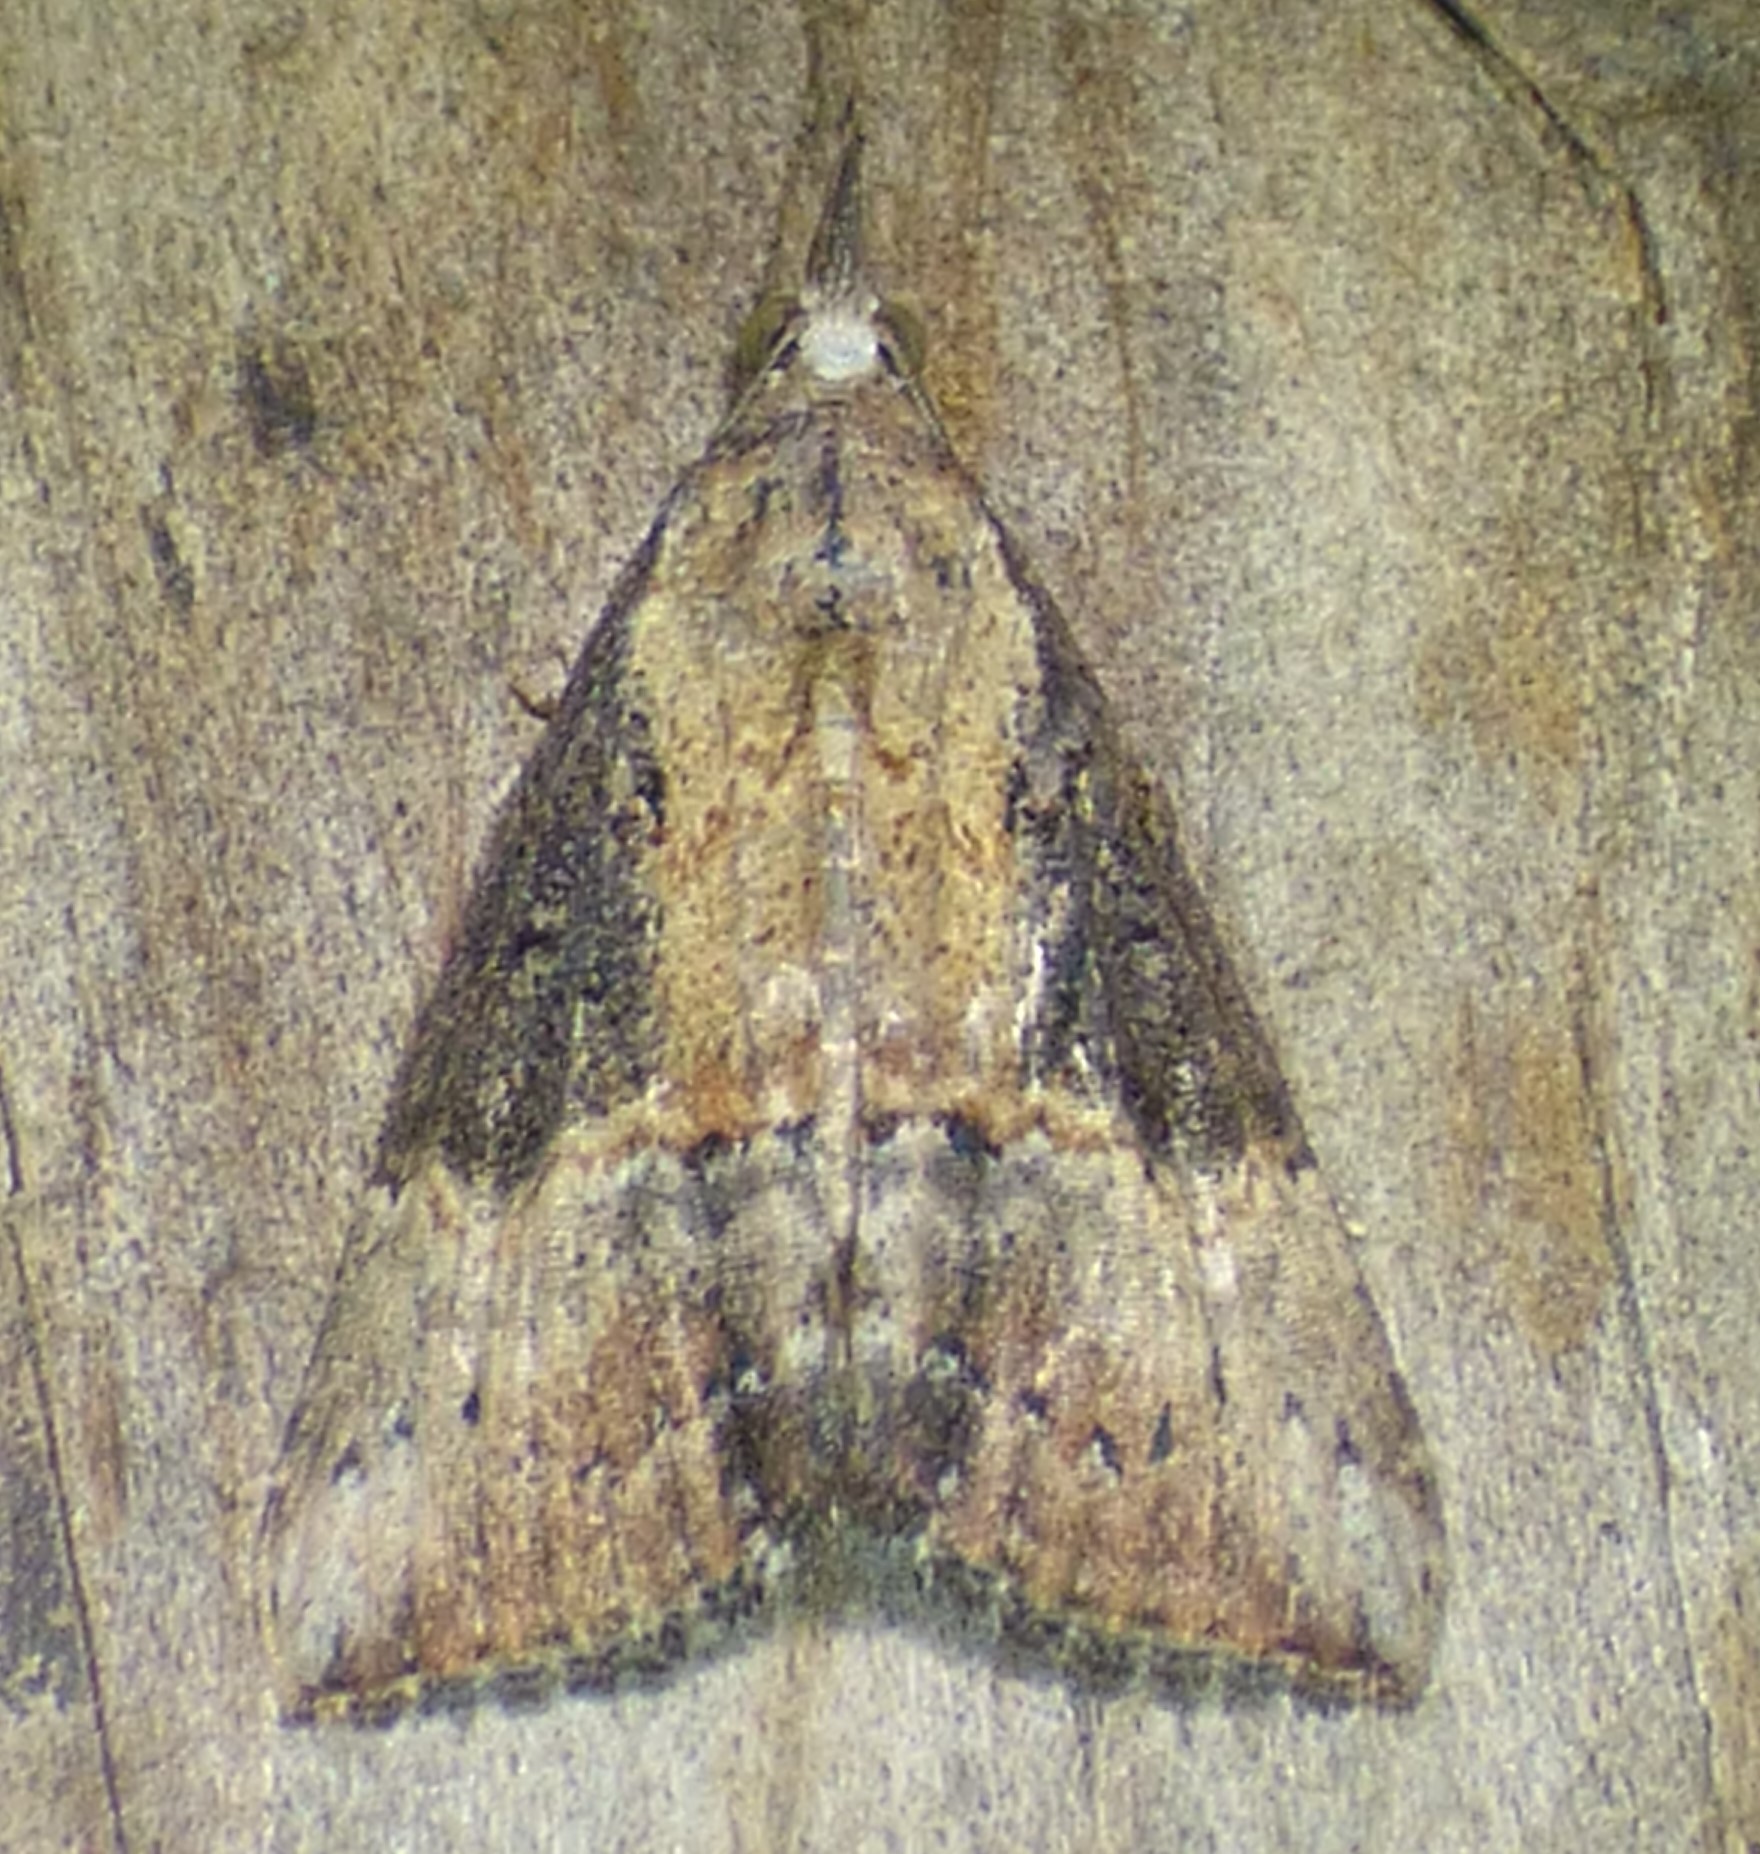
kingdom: Animalia
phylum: Arthropoda
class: Insecta
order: Lepidoptera
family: Erebidae
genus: Hypena
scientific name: Hypena scabra
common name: Green cloverworm
